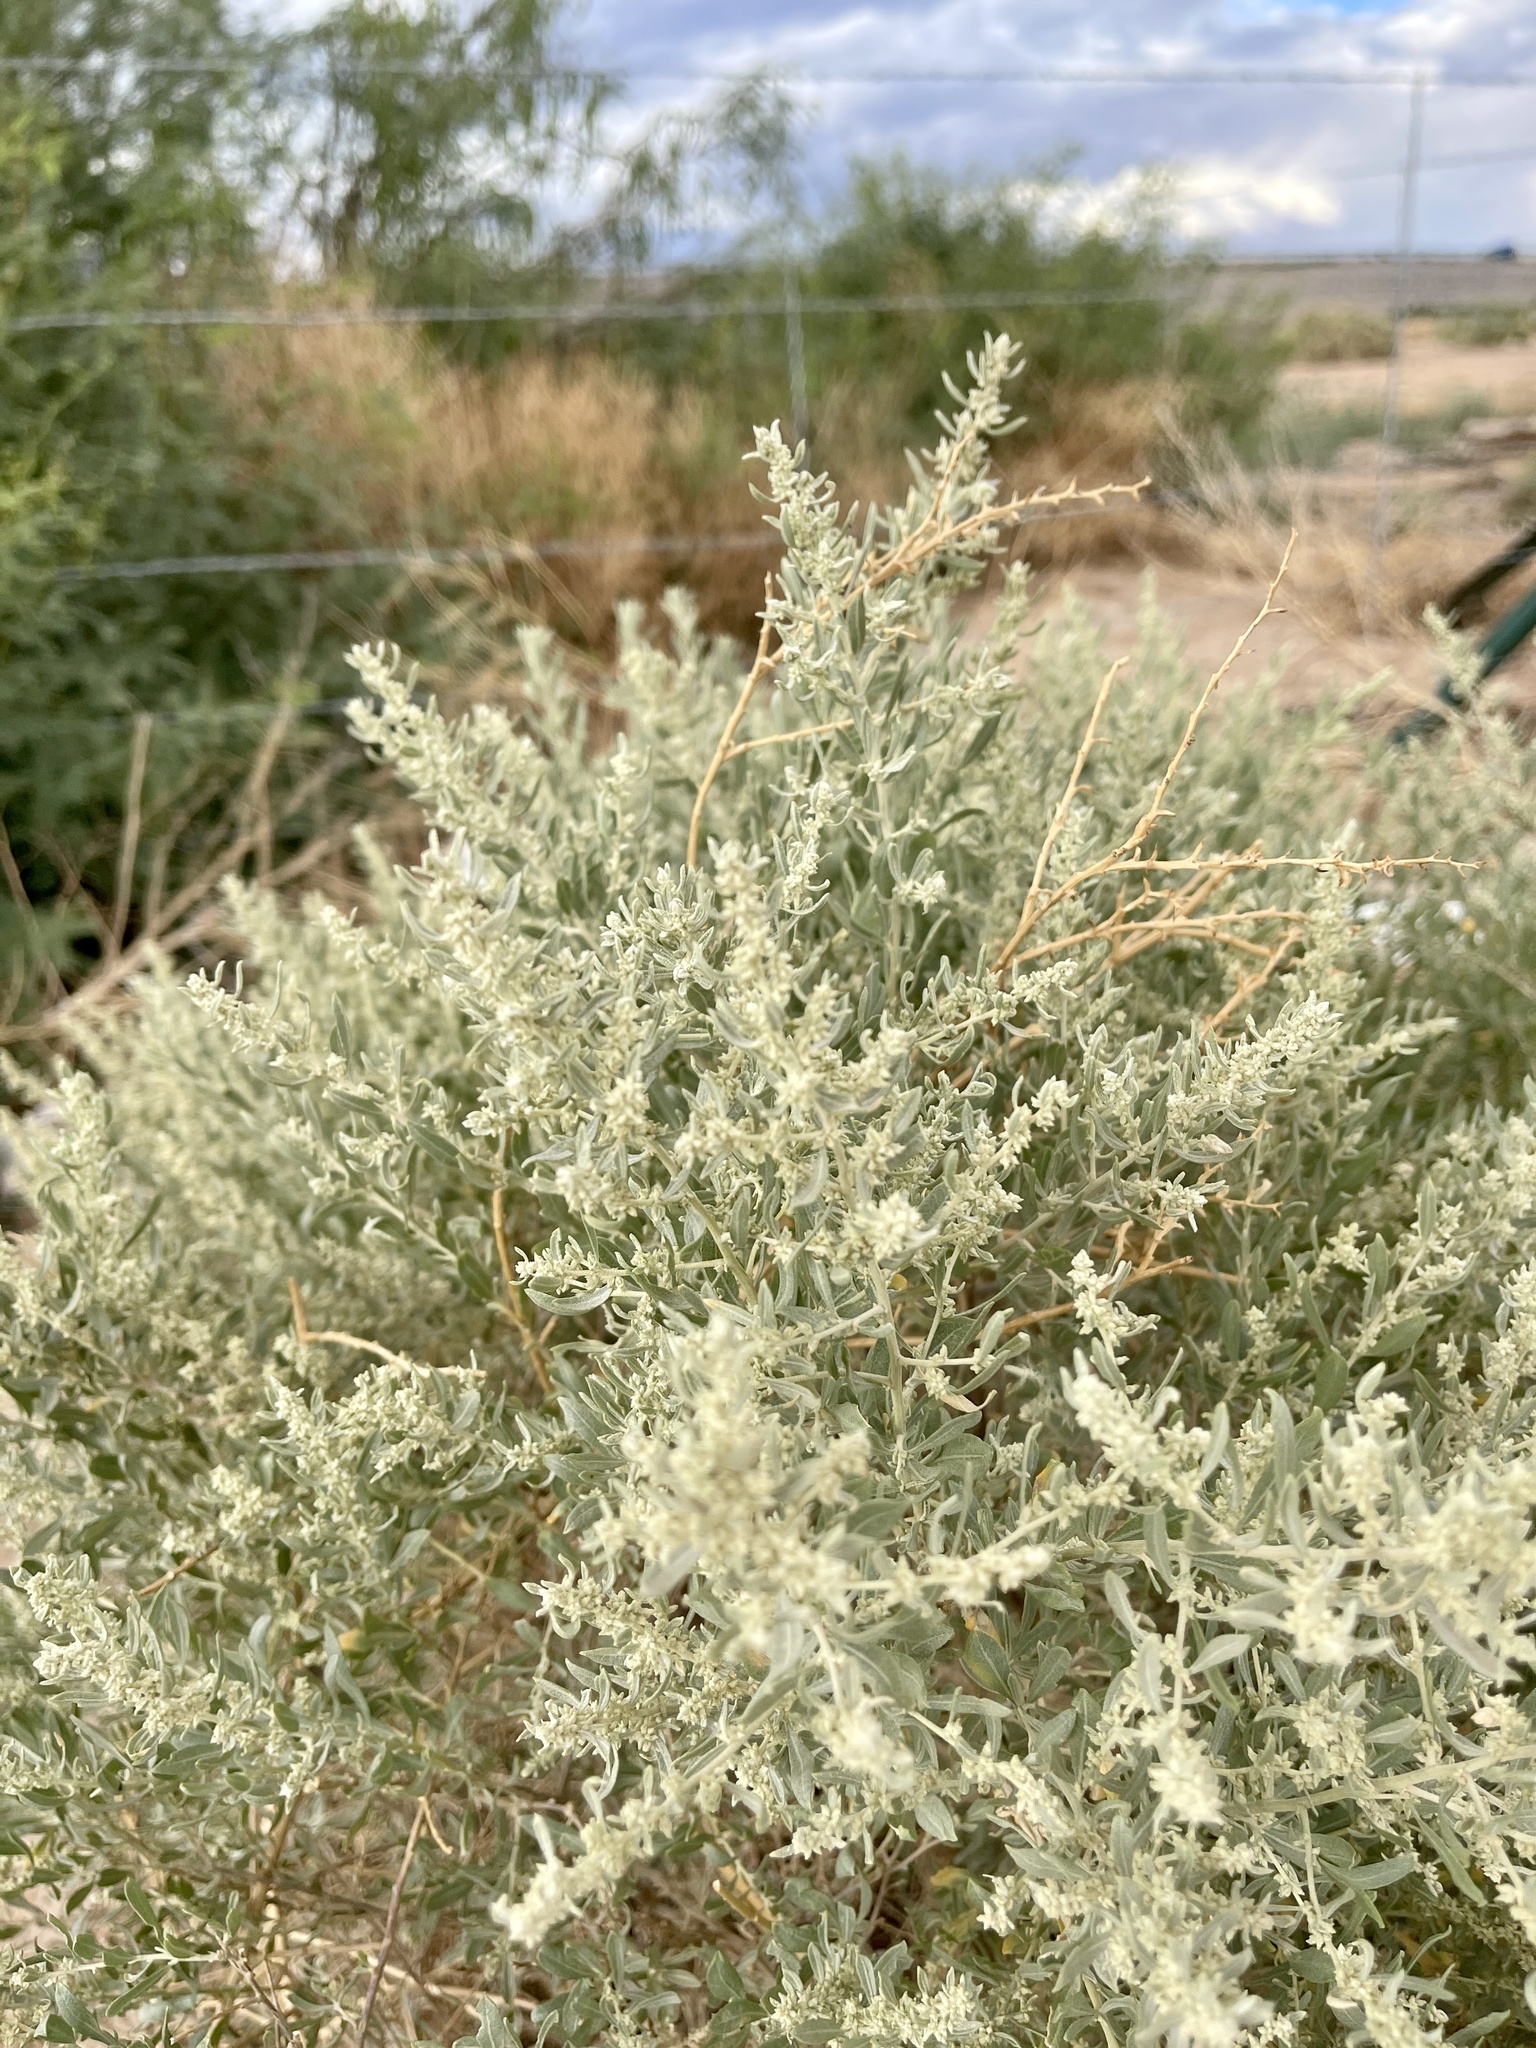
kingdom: Plantae
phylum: Tracheophyta
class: Magnoliopsida
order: Caryophyllales
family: Amaranthaceae
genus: Atriplex
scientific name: Atriplex canescens
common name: Four-wing saltbush
